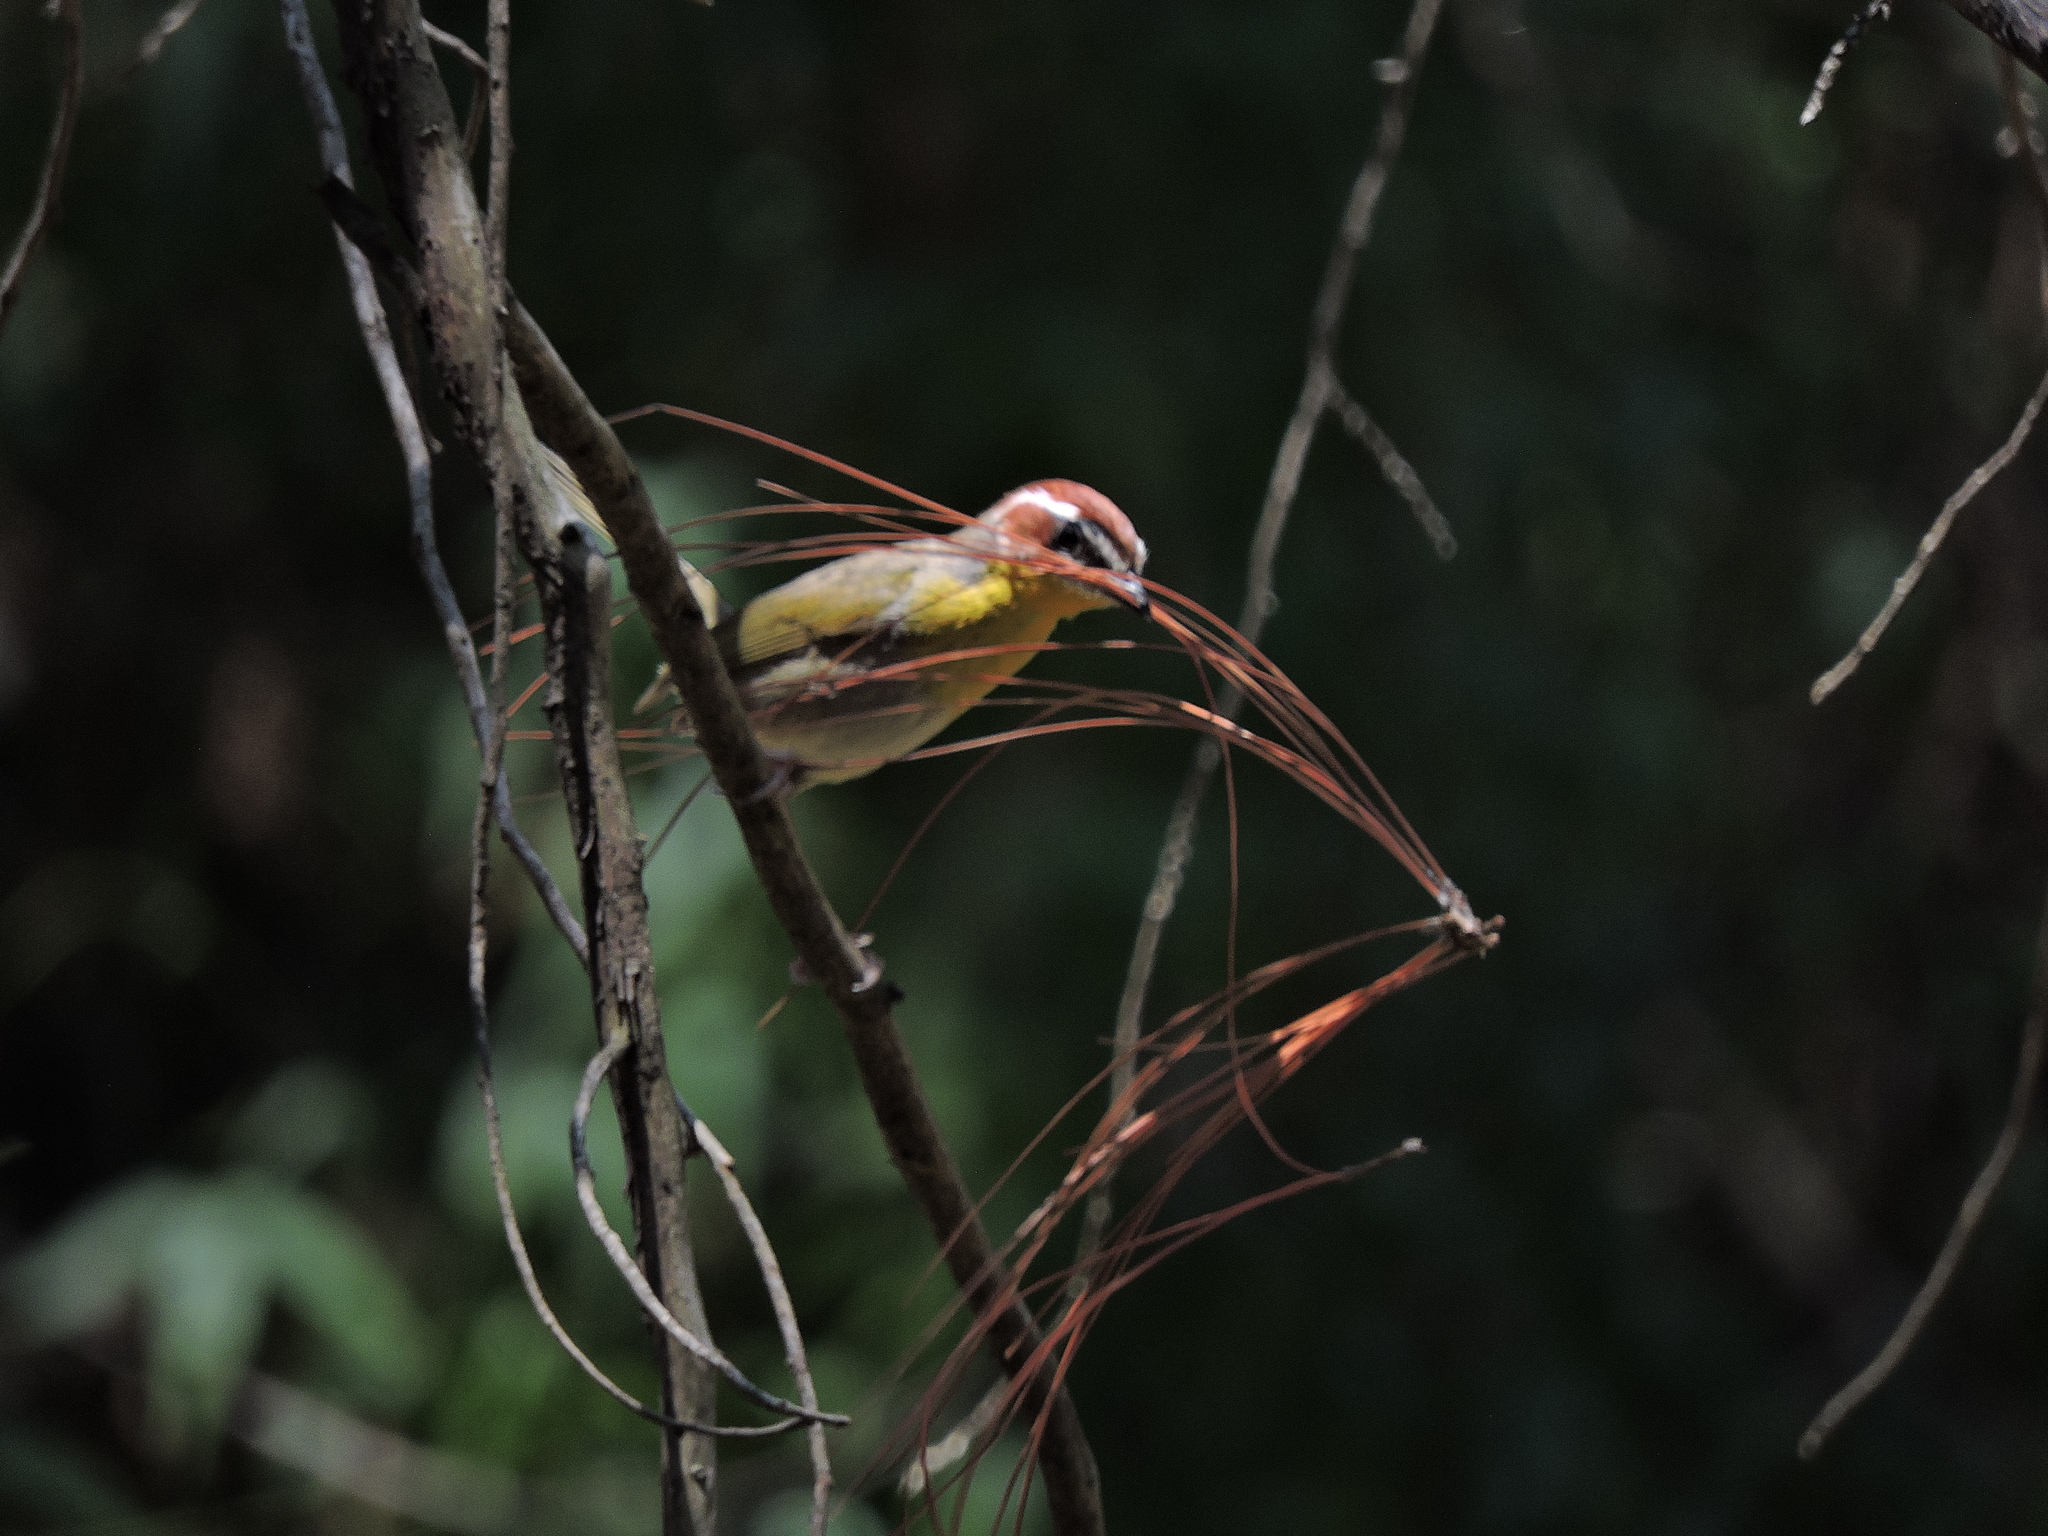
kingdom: Animalia
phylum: Chordata
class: Aves
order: Passeriformes
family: Parulidae
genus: Basileuterus
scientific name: Basileuterus rufifrons
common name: Rufous-capped warbler
